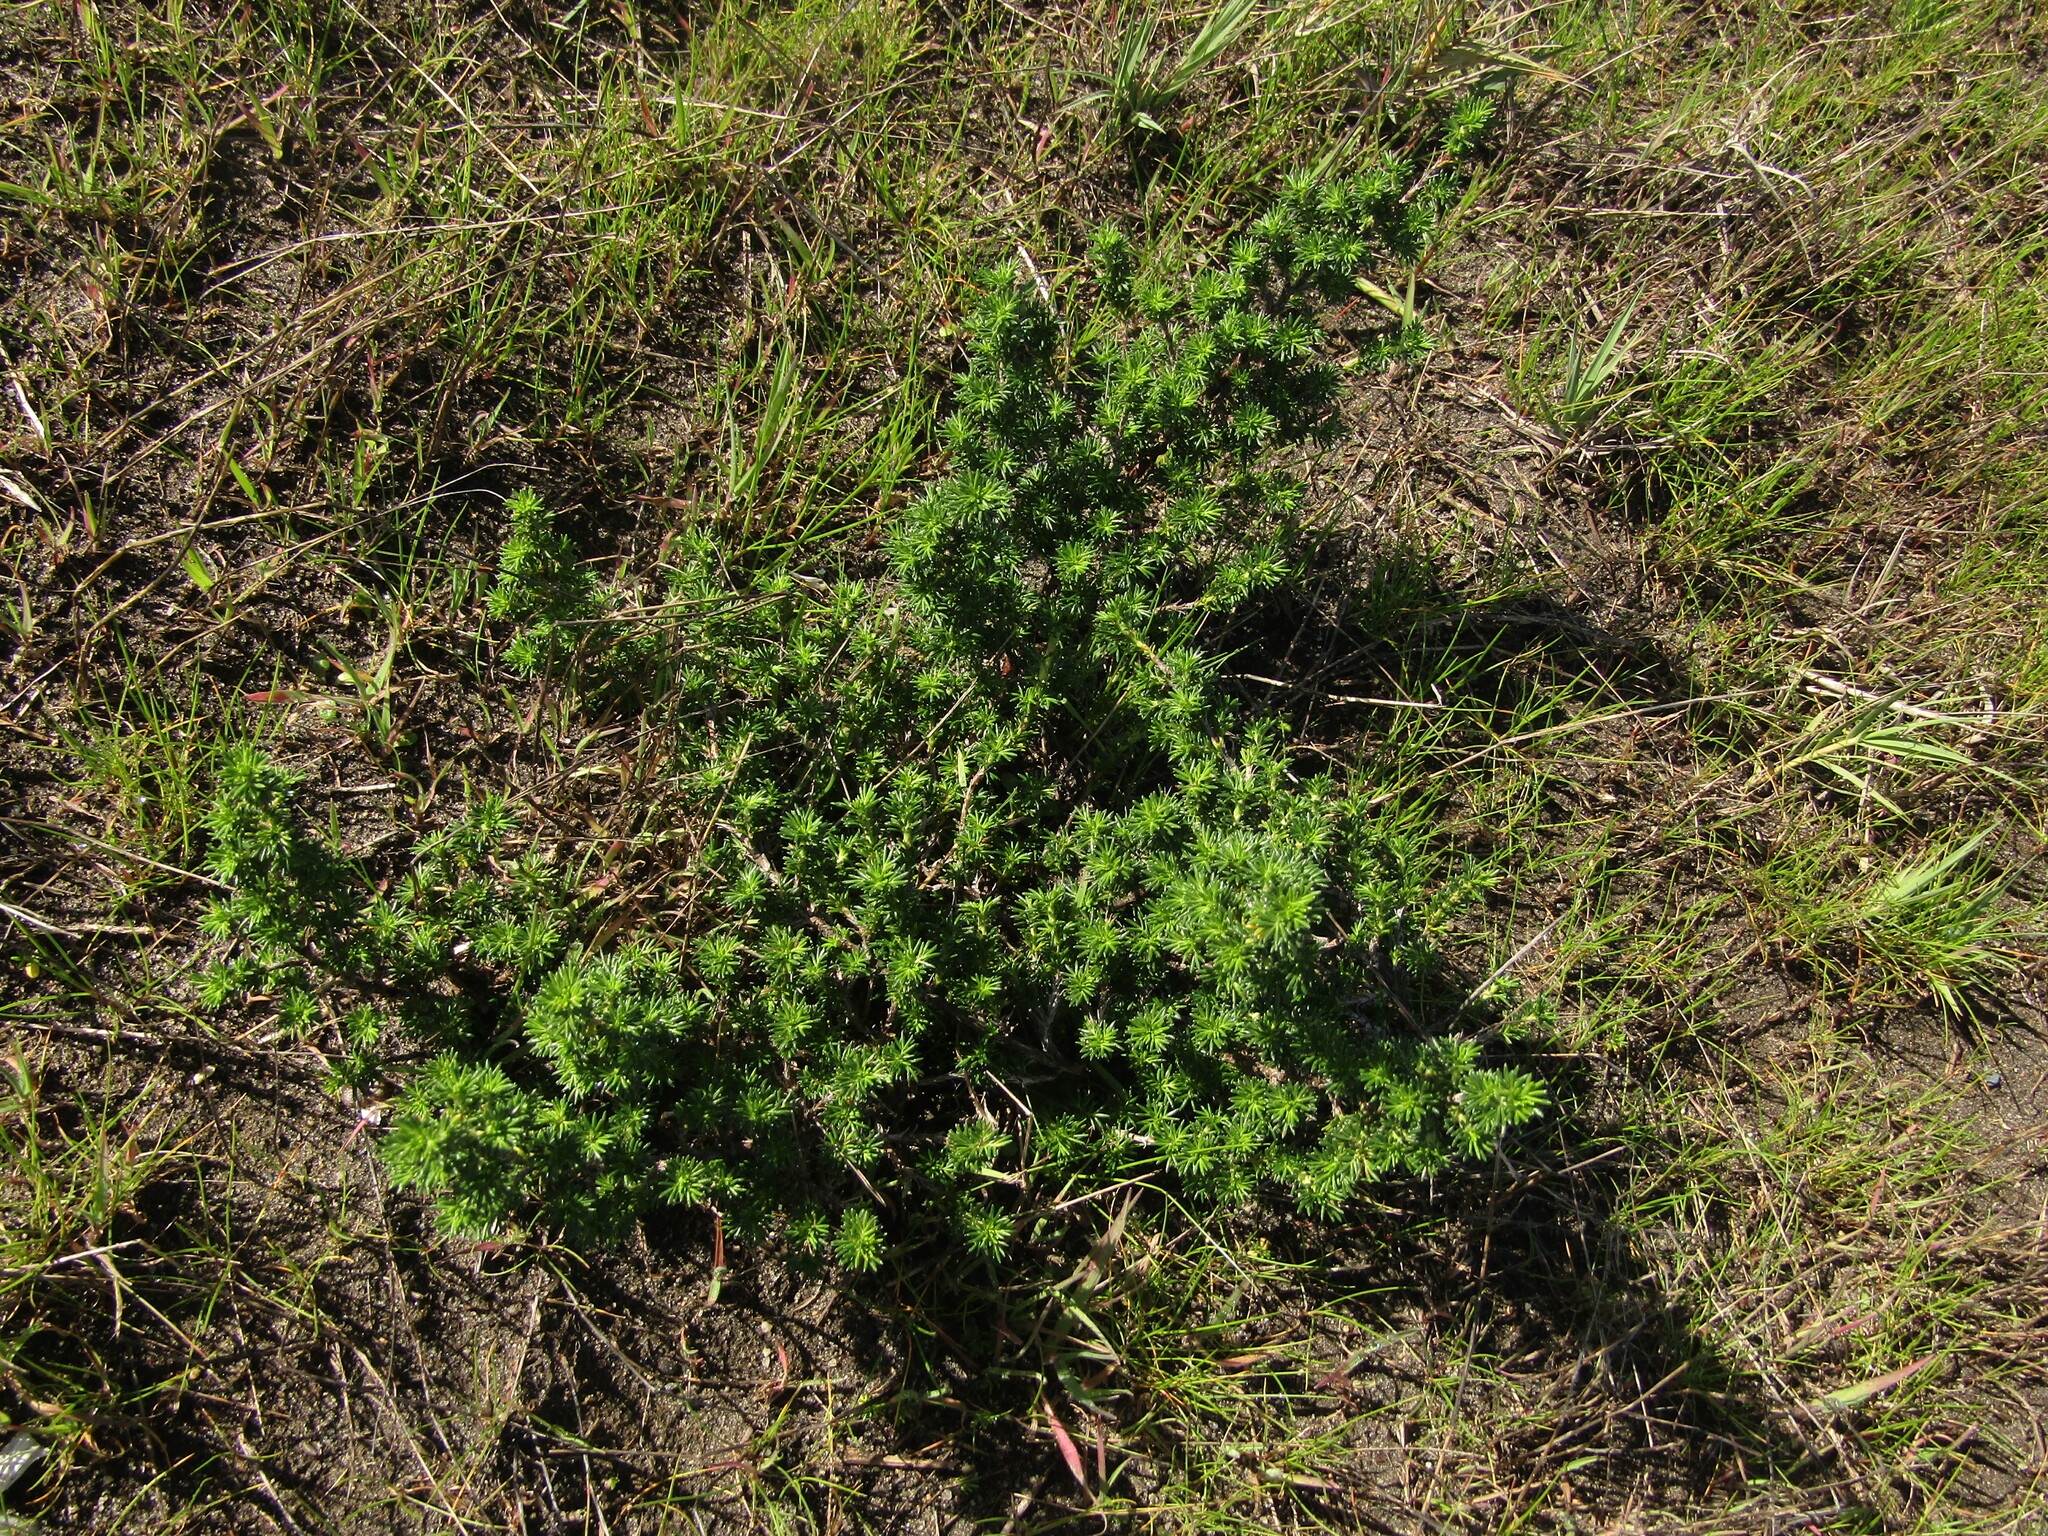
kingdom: Plantae
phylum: Tracheophyta
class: Magnoliopsida
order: Rosales
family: Rosaceae
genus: Margyricarpus
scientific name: Margyricarpus pinnatus
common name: Pearlfruit
